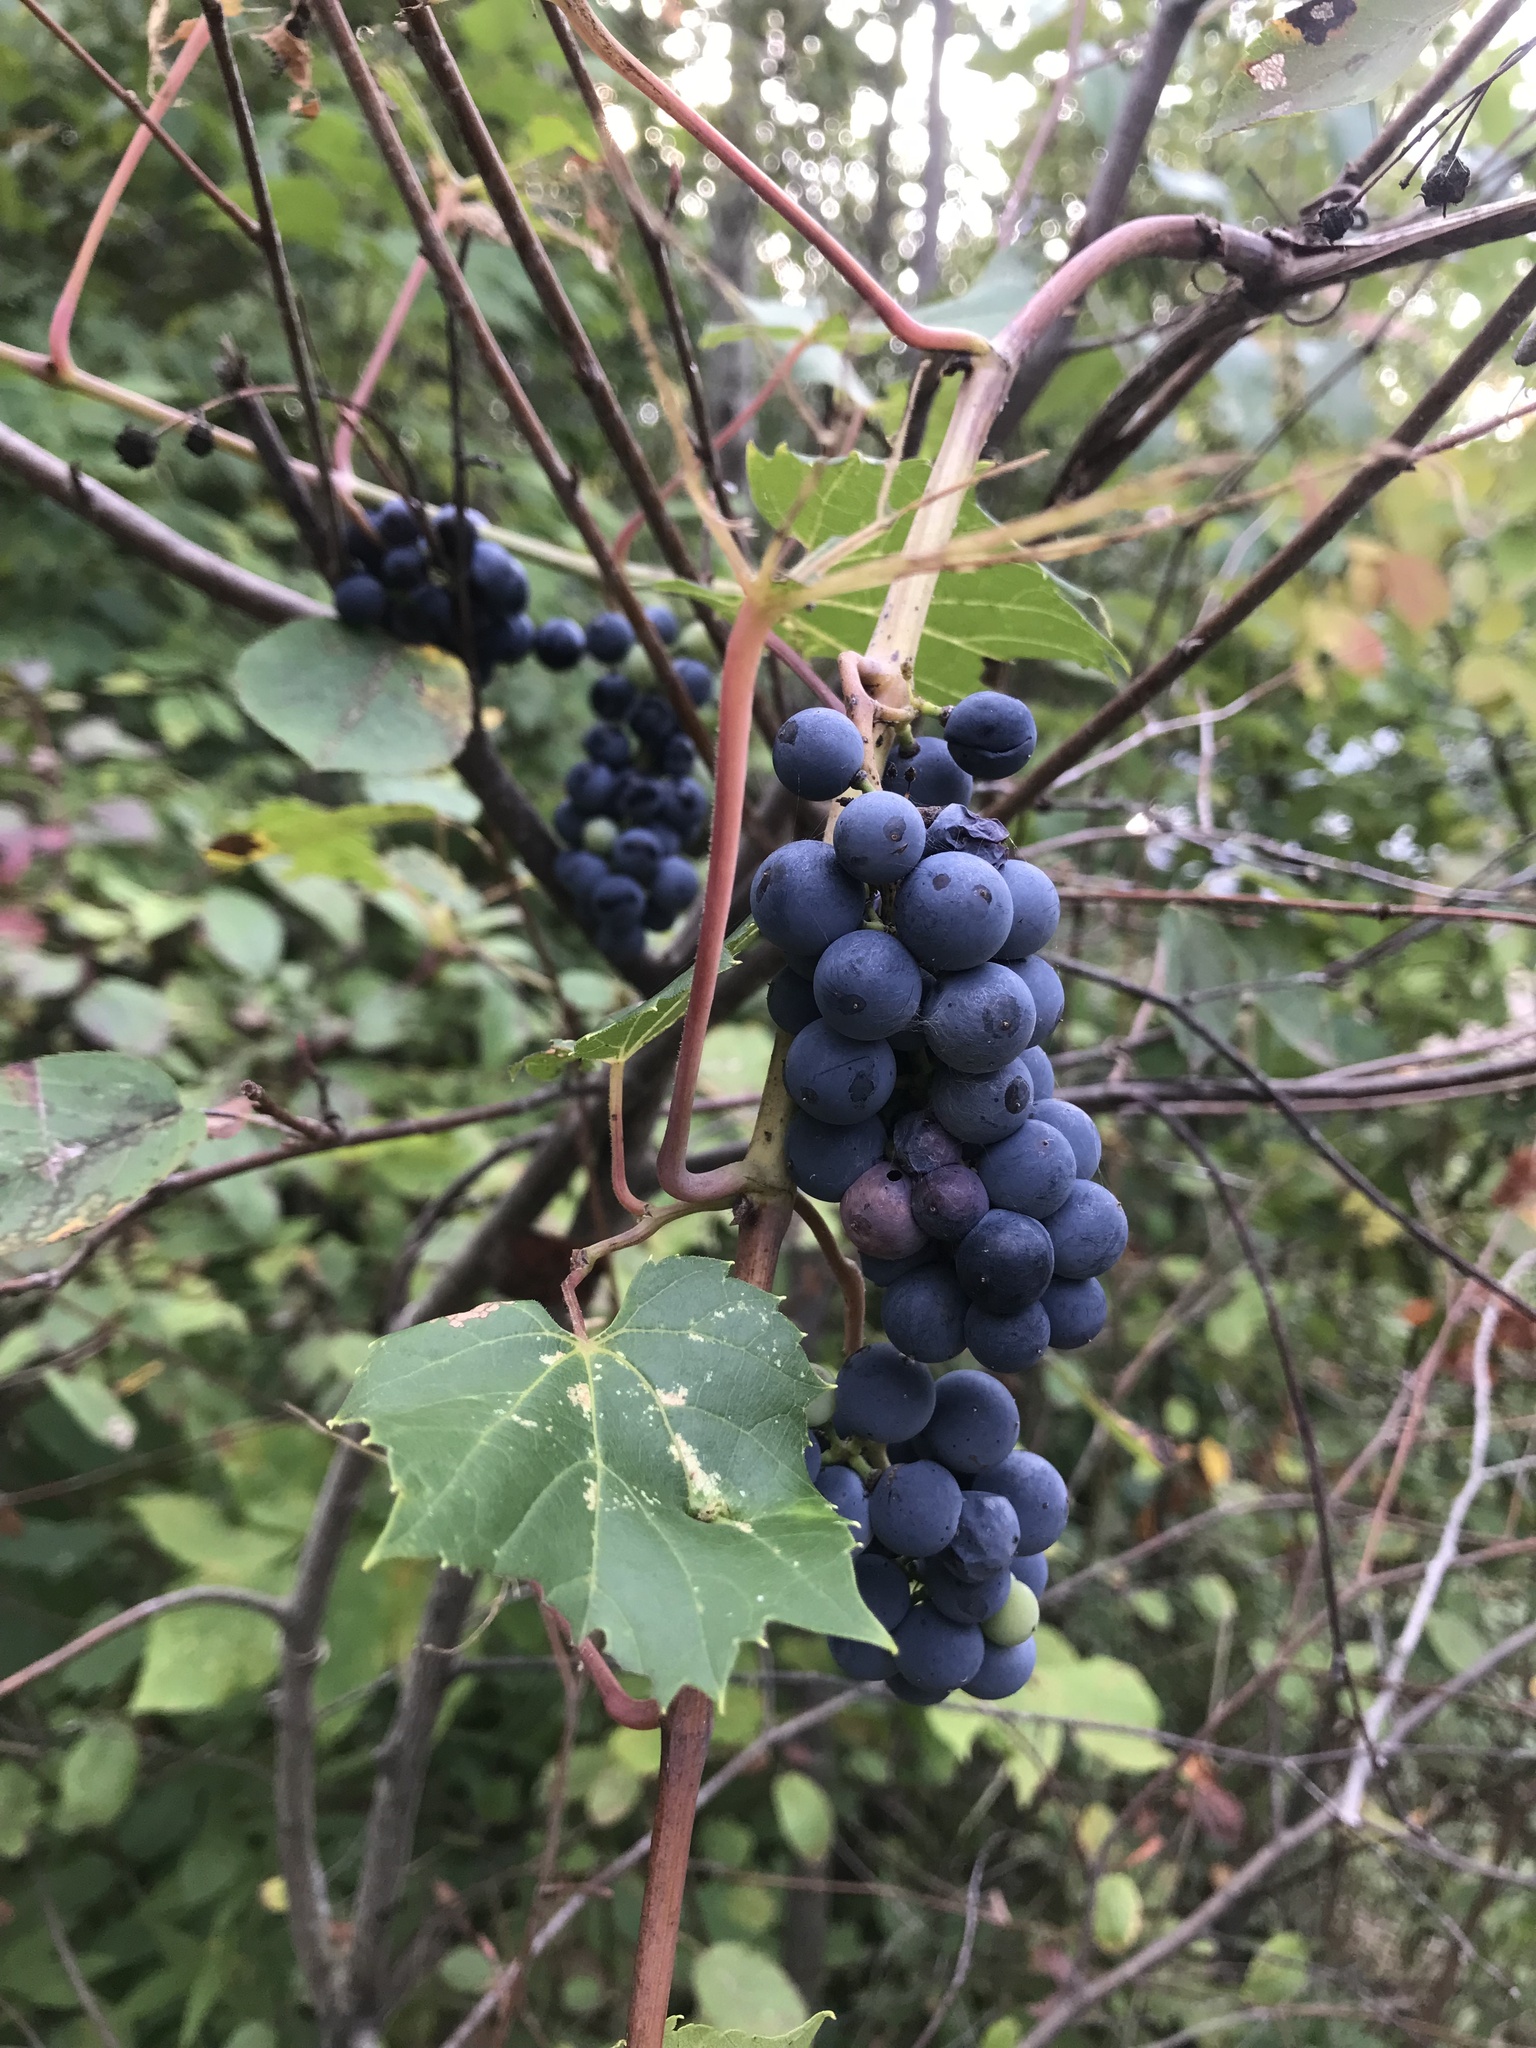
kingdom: Plantae
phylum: Tracheophyta
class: Magnoliopsida
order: Vitales
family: Vitaceae
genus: Vitis
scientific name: Vitis riparia
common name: Frost grape
